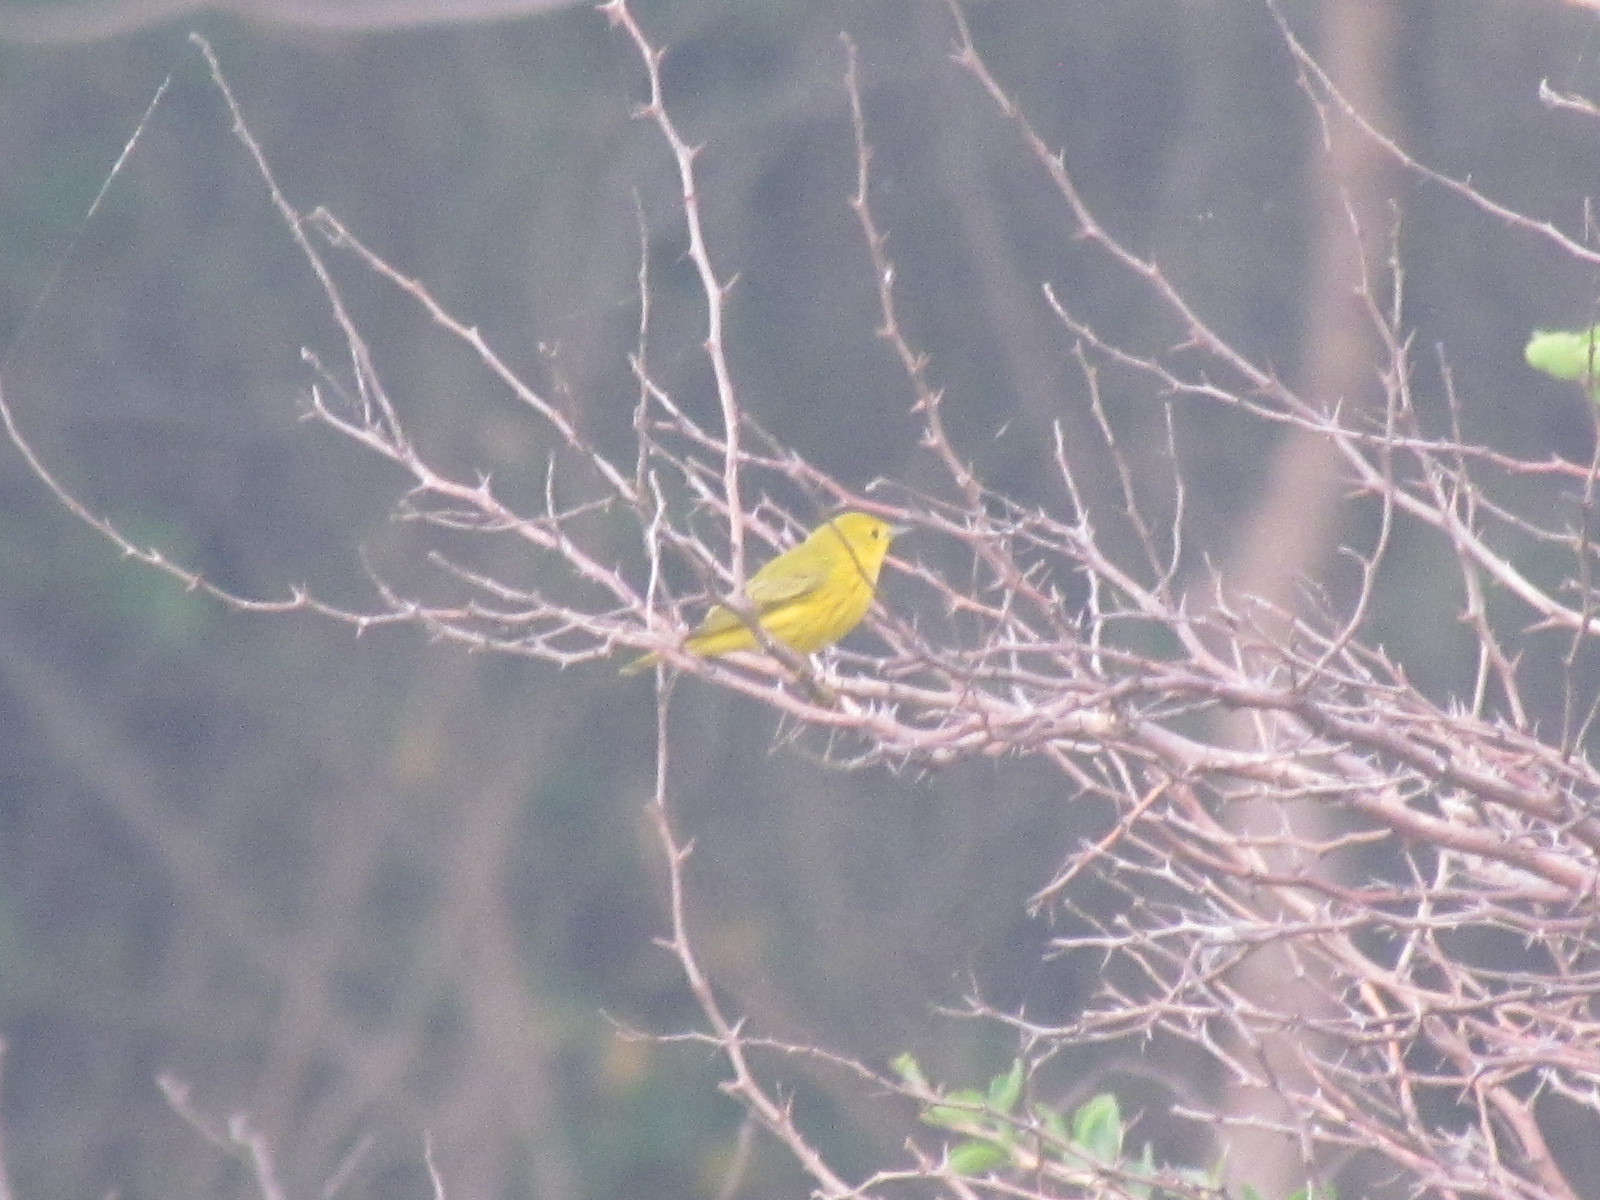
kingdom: Animalia
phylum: Chordata
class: Aves
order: Passeriformes
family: Parulidae
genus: Setophaga
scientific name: Setophaga petechia
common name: Yellow warbler
